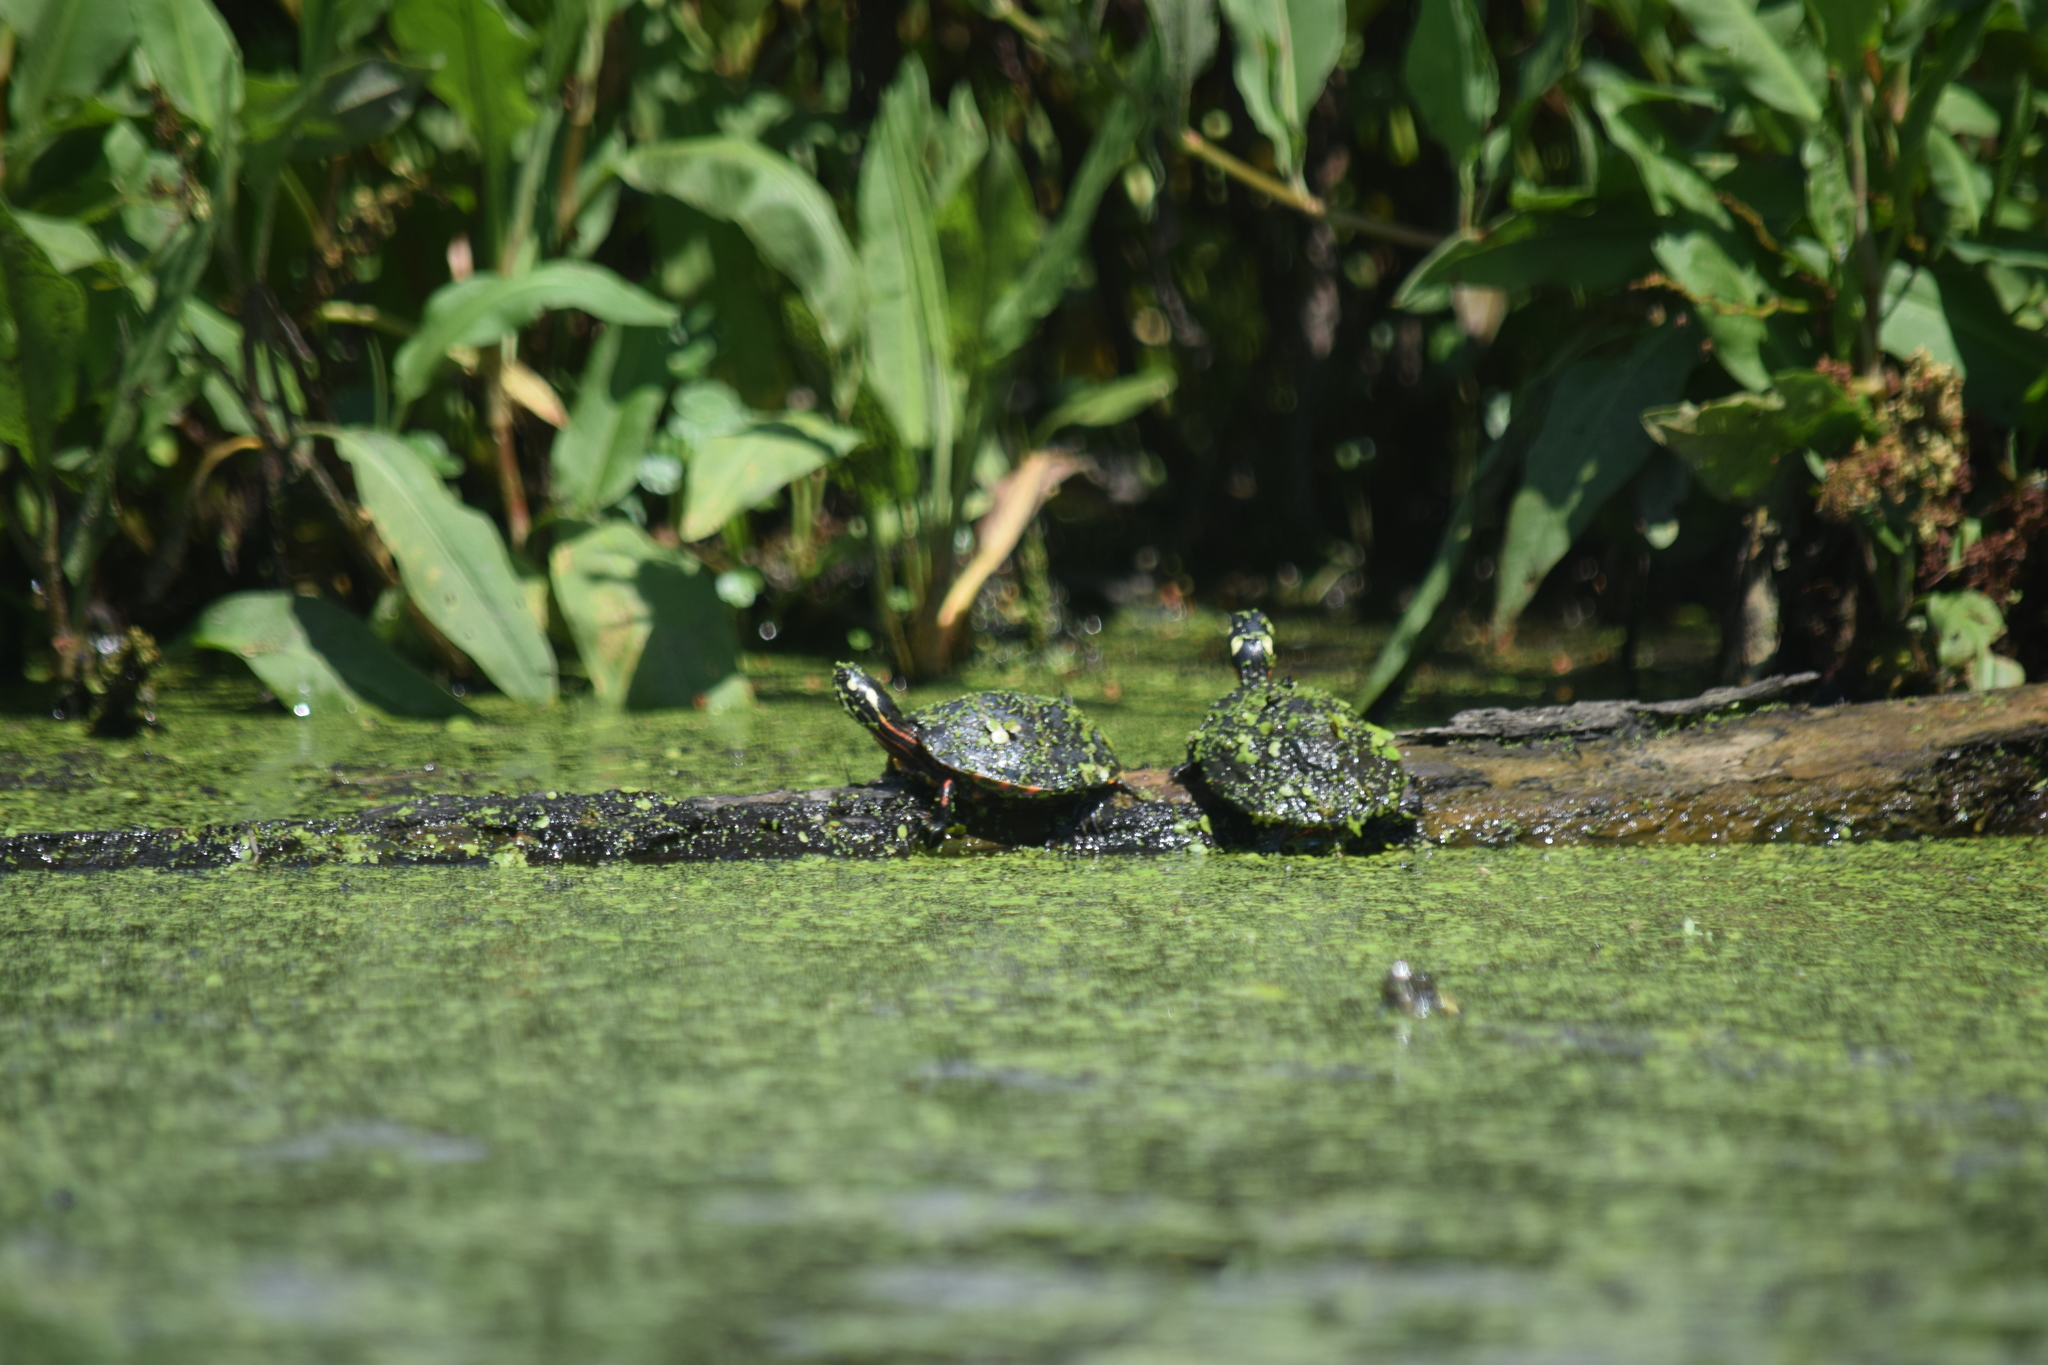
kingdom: Animalia
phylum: Chordata
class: Testudines
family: Emydidae
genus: Chrysemys
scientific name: Chrysemys picta
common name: Painted turtle
